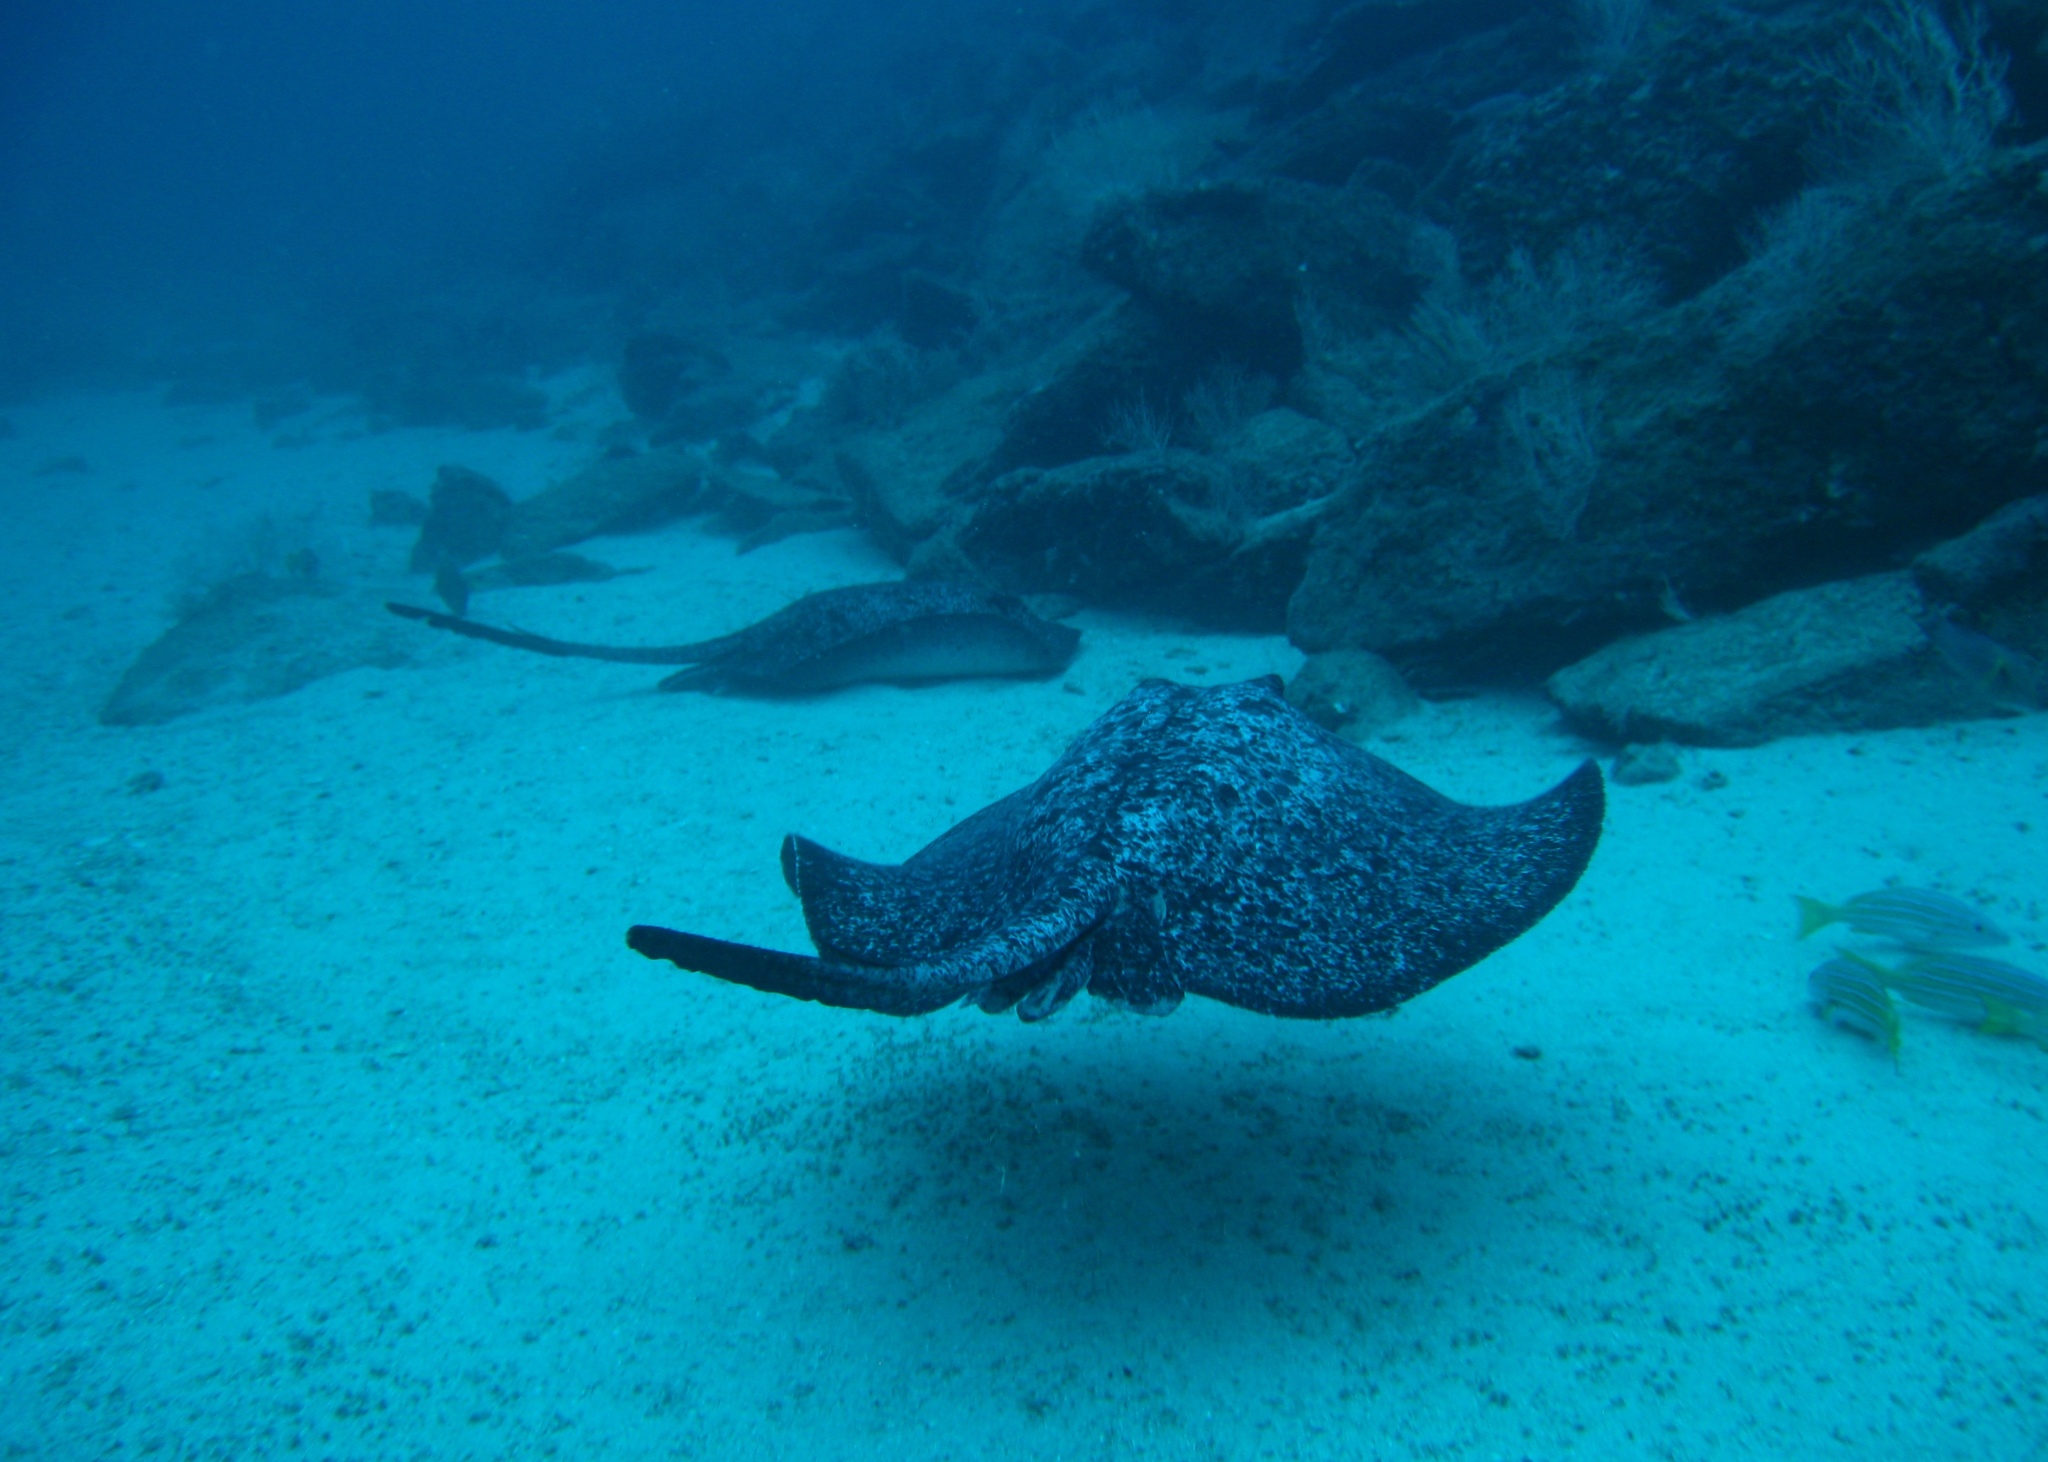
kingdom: Animalia
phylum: Chordata
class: Elasmobranchii
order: Myliobatiformes
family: Dasyatidae
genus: Taeniurops
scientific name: Taeniurops meyeni
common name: Black-blotched stingray
